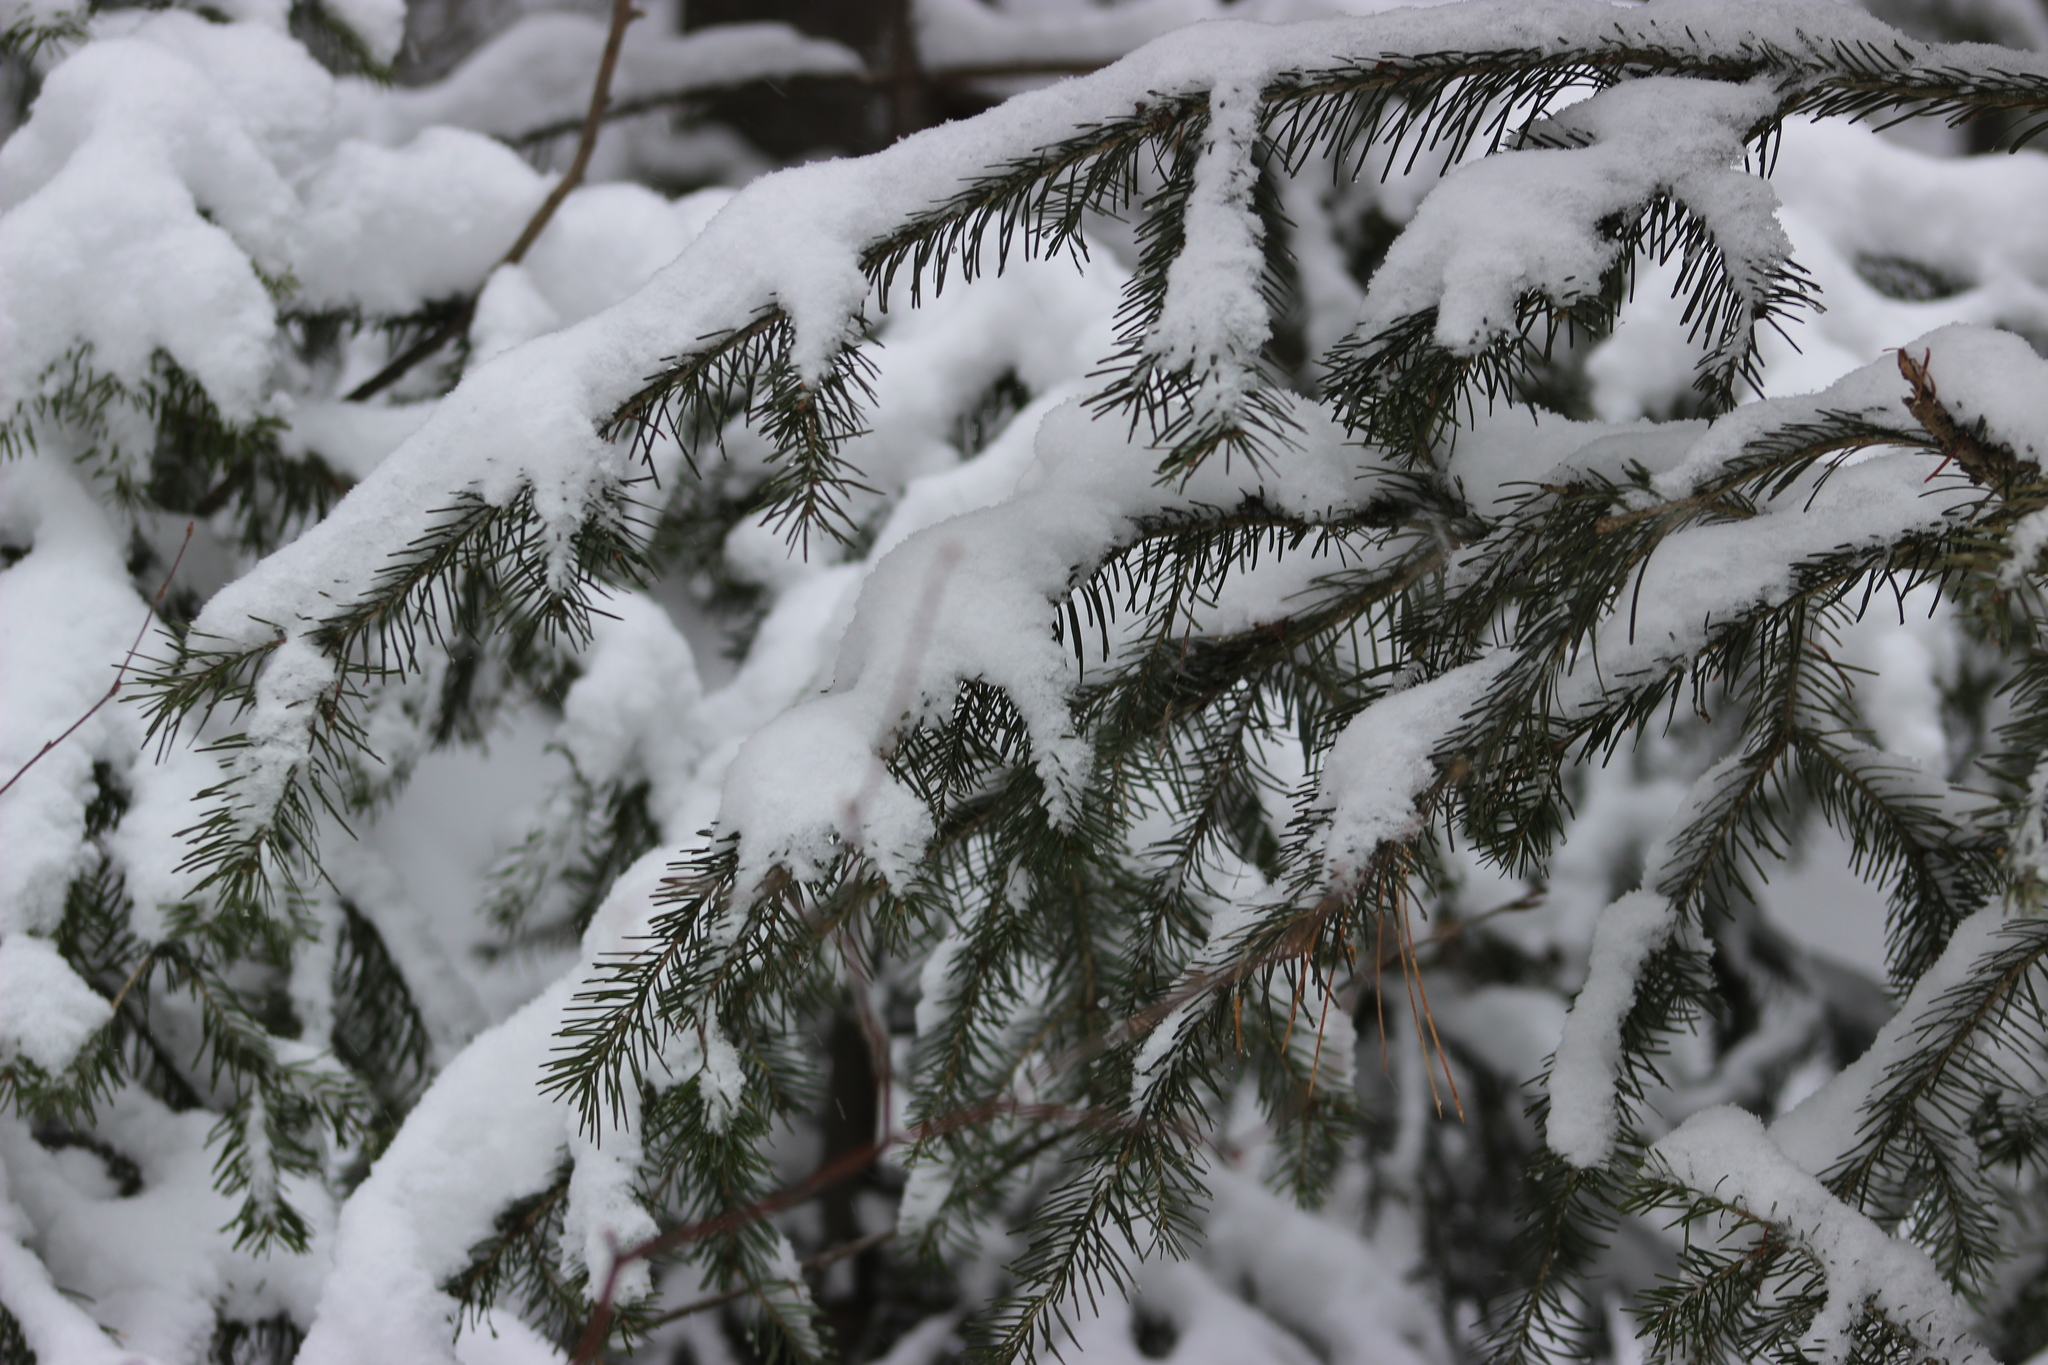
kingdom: Plantae
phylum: Tracheophyta
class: Pinopsida
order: Pinales
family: Pinaceae
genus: Abies
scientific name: Abies sibirica
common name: Siberian fir
